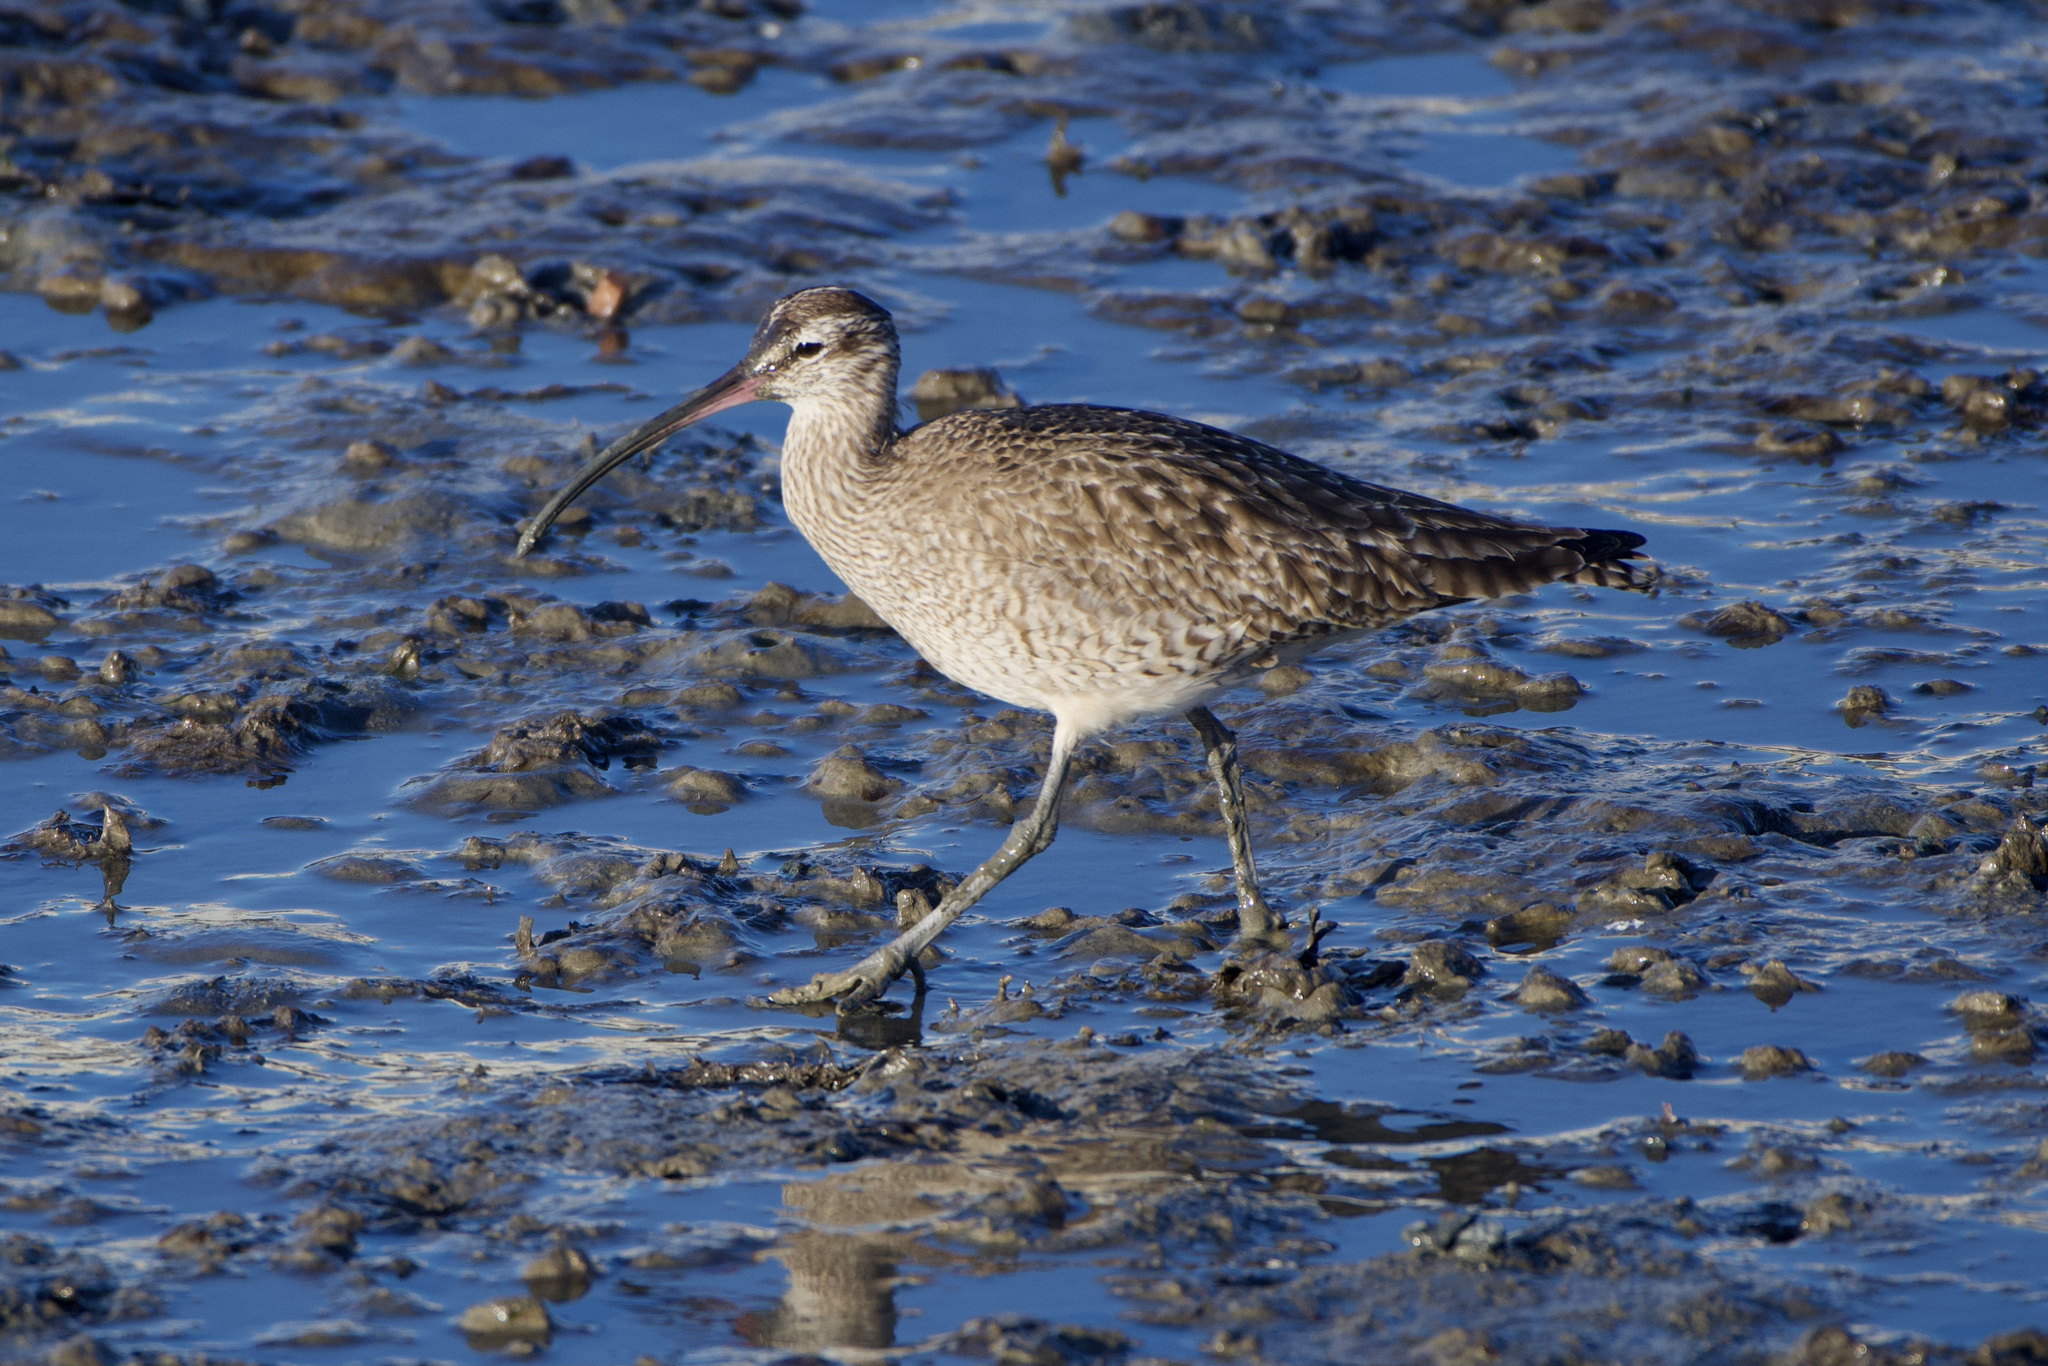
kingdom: Animalia
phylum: Chordata
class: Aves
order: Charadriiformes
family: Scolopacidae
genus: Numenius
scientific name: Numenius phaeopus
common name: Whimbrel
